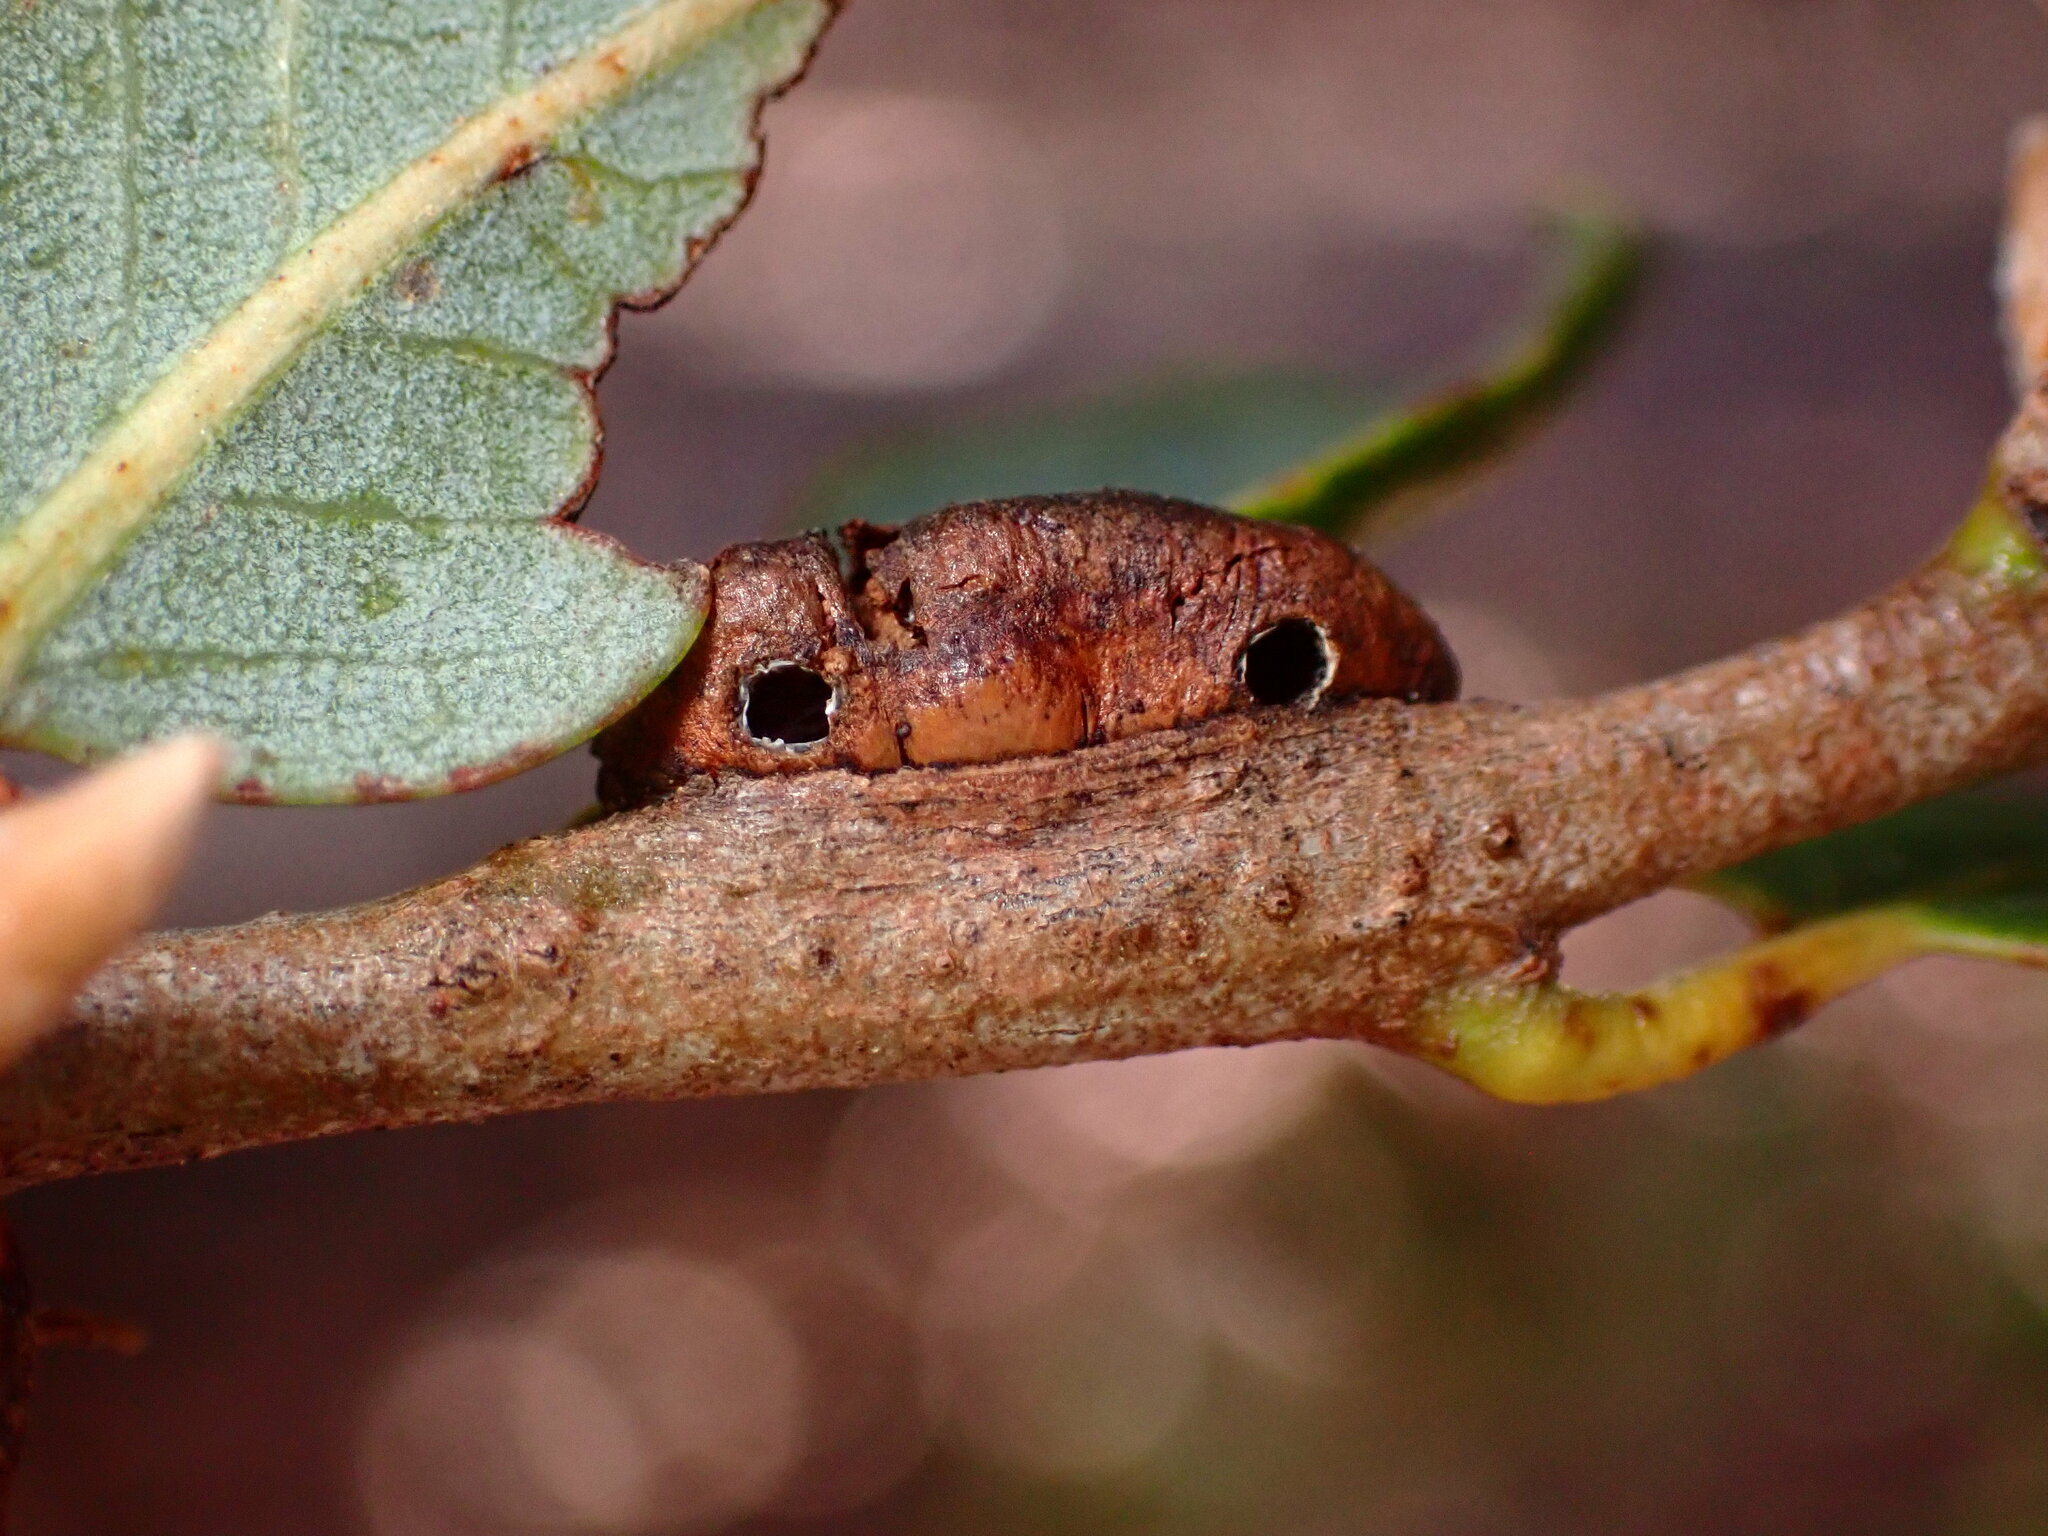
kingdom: Animalia
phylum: Arthropoda
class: Insecta
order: Hymenoptera
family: Cynipidae
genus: Disholandricus
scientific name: Disholandricus
